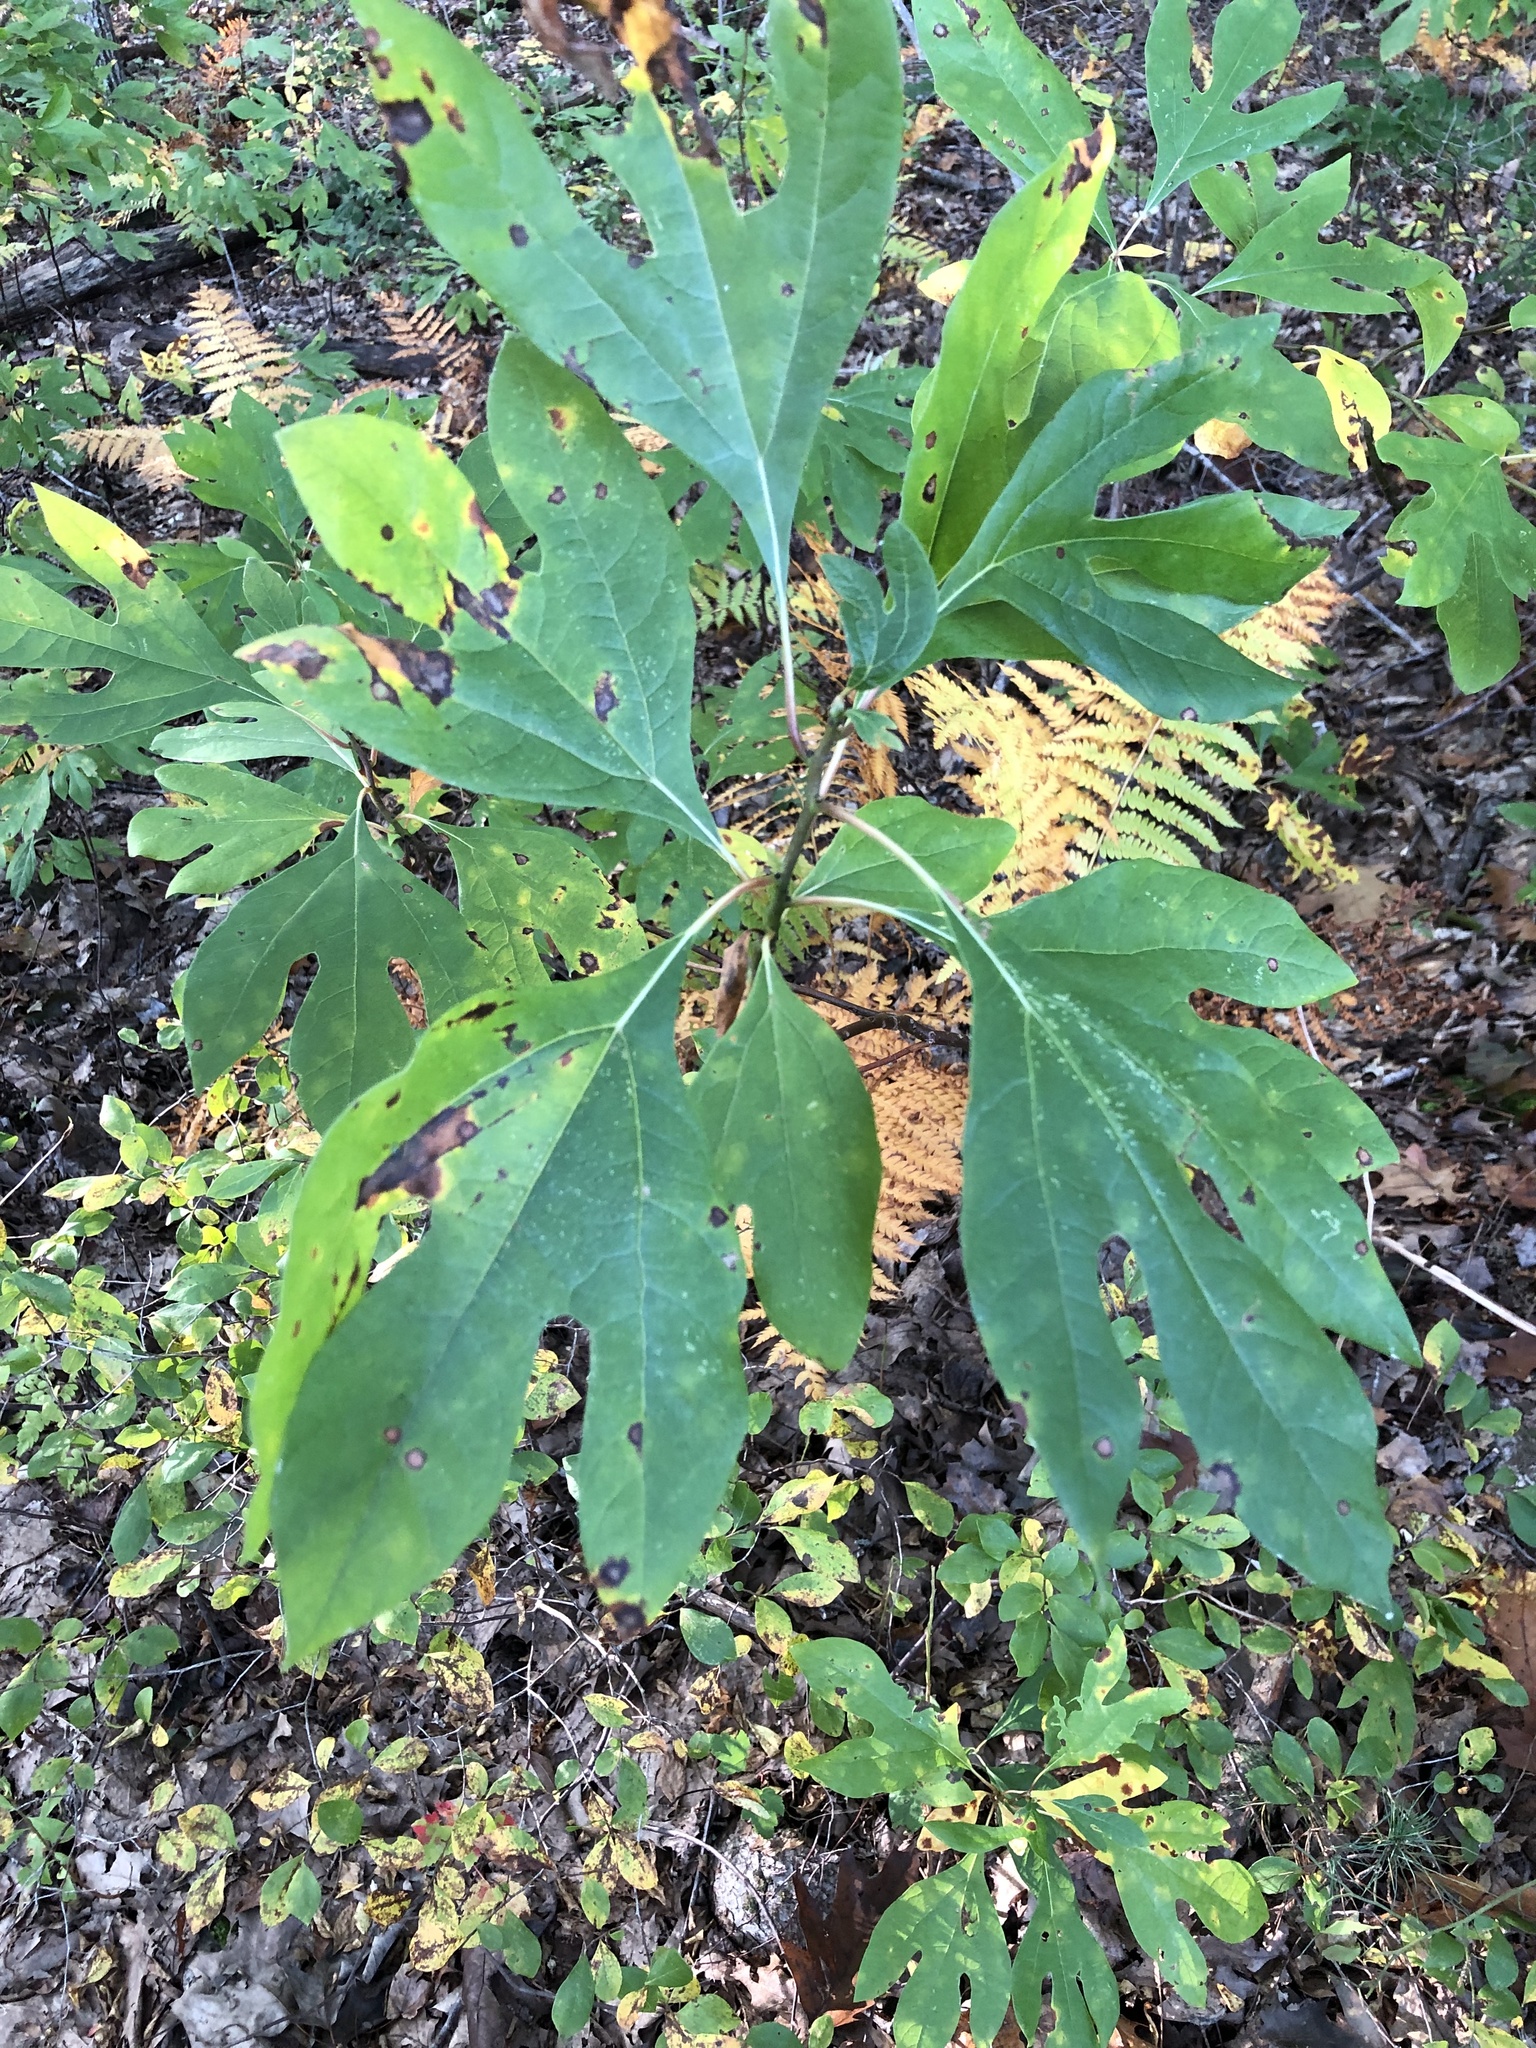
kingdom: Plantae
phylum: Tracheophyta
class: Magnoliopsida
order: Laurales
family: Lauraceae
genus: Sassafras
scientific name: Sassafras albidum
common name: Sassafras
